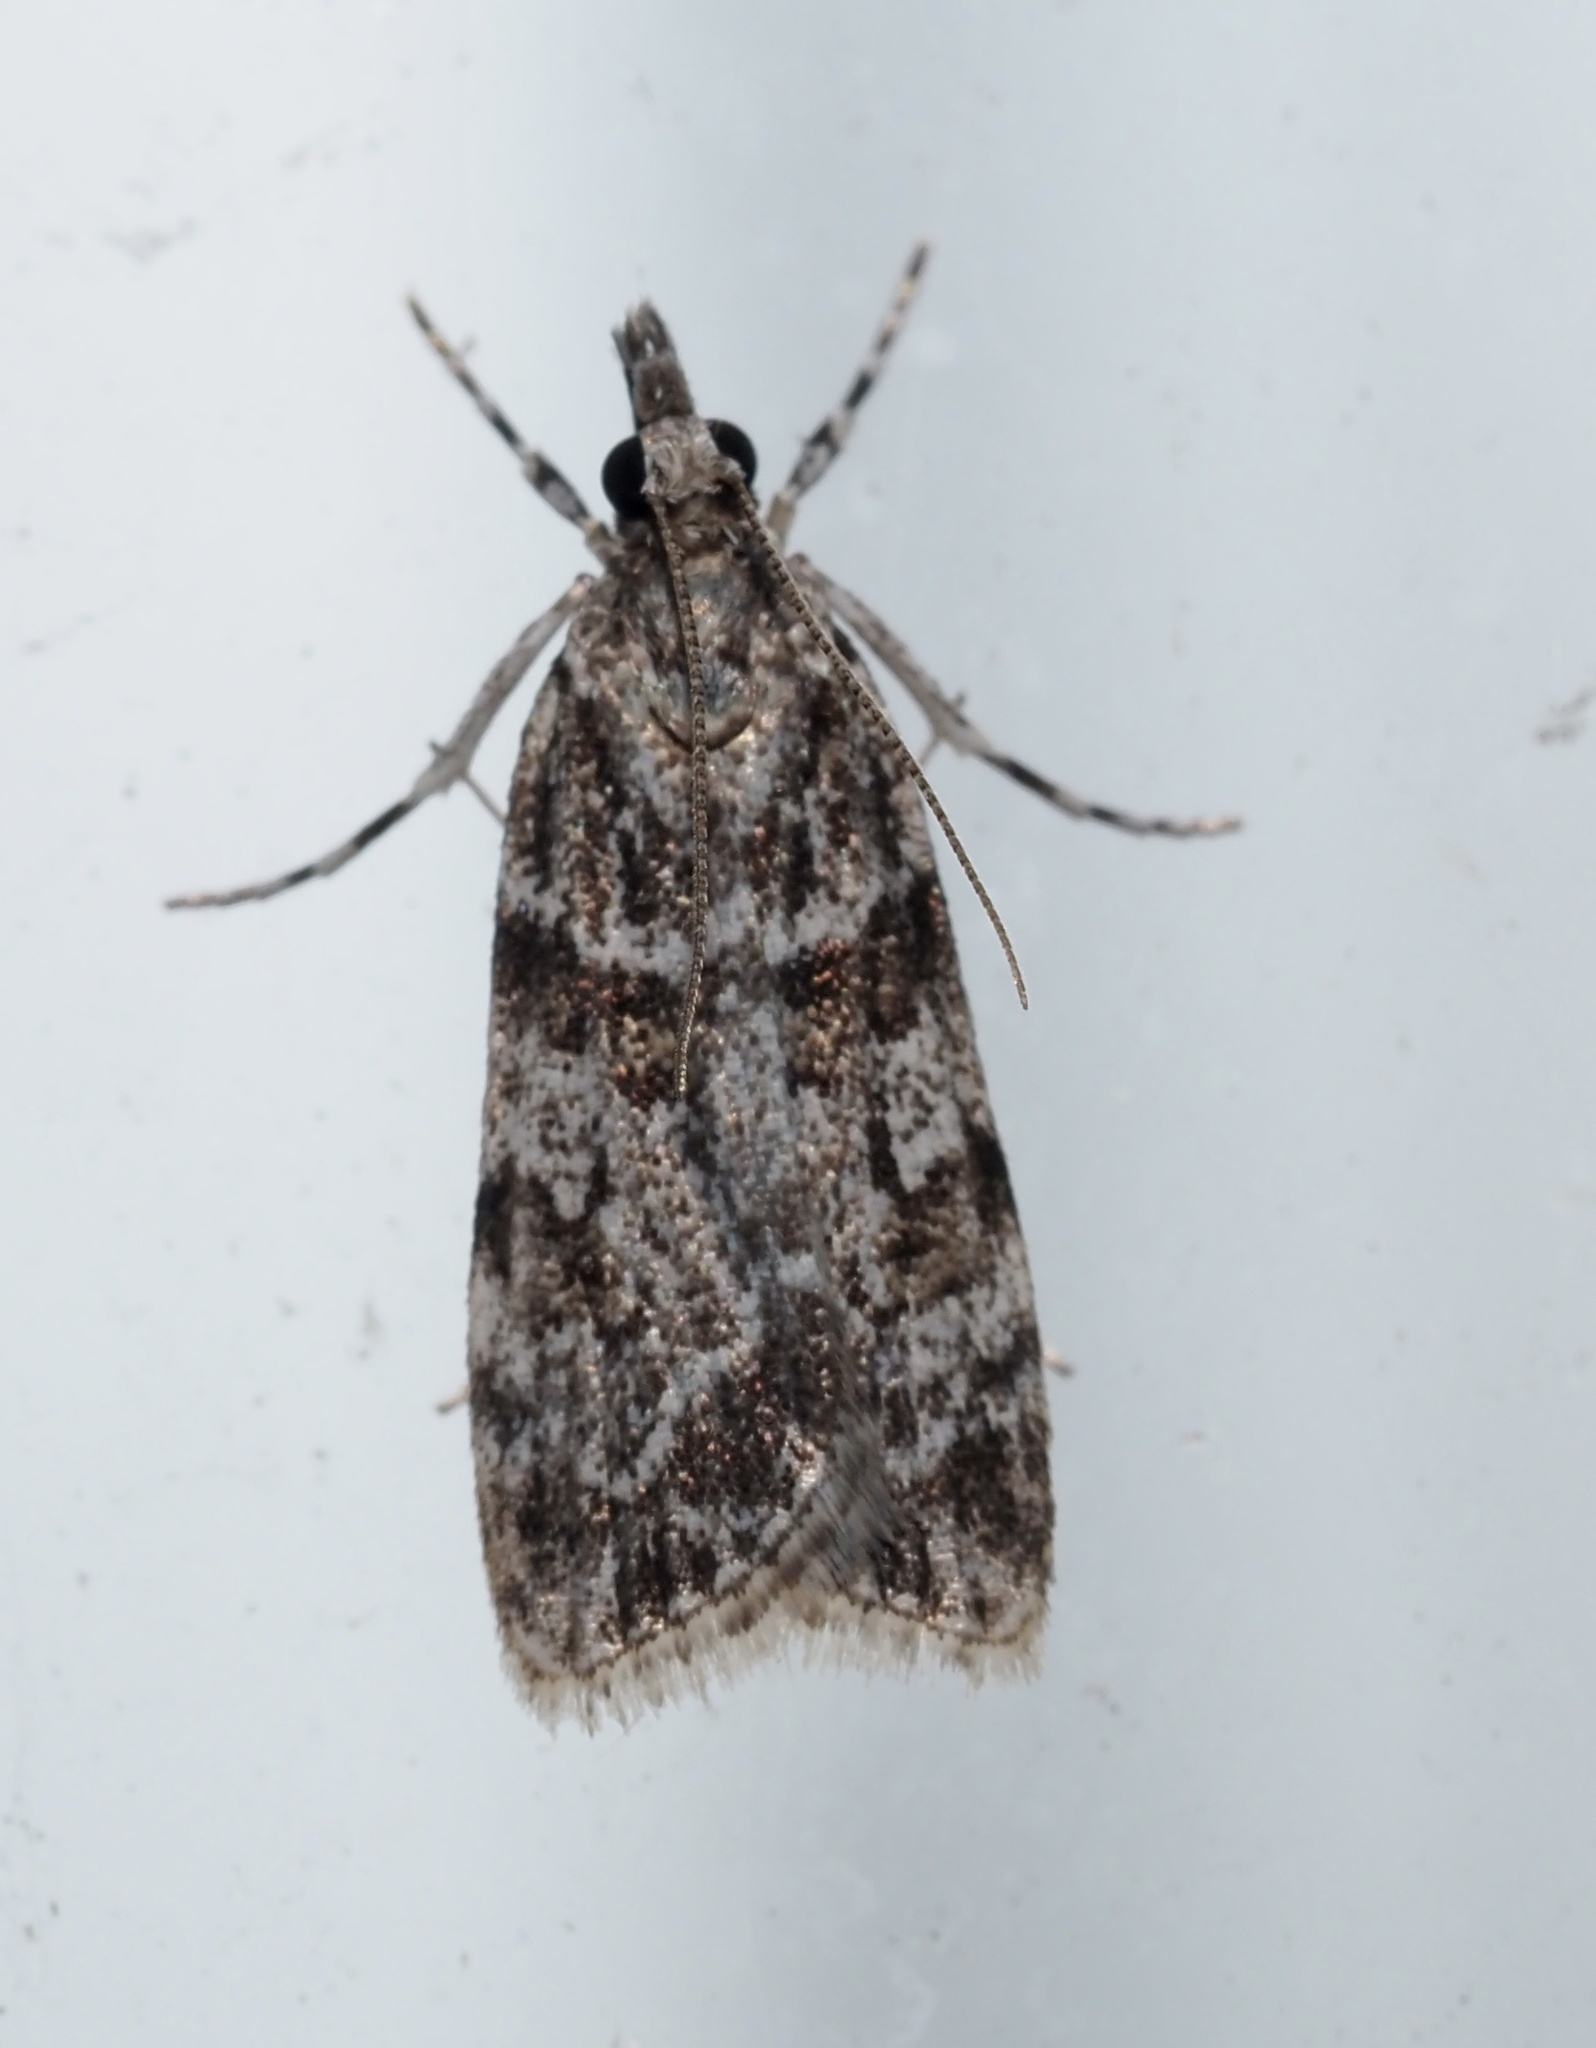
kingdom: Animalia
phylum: Arthropoda
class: Insecta
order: Lepidoptera
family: Crambidae
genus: Scoparia
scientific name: Scoparia biplagialis
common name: Double-striped scoparia moth
